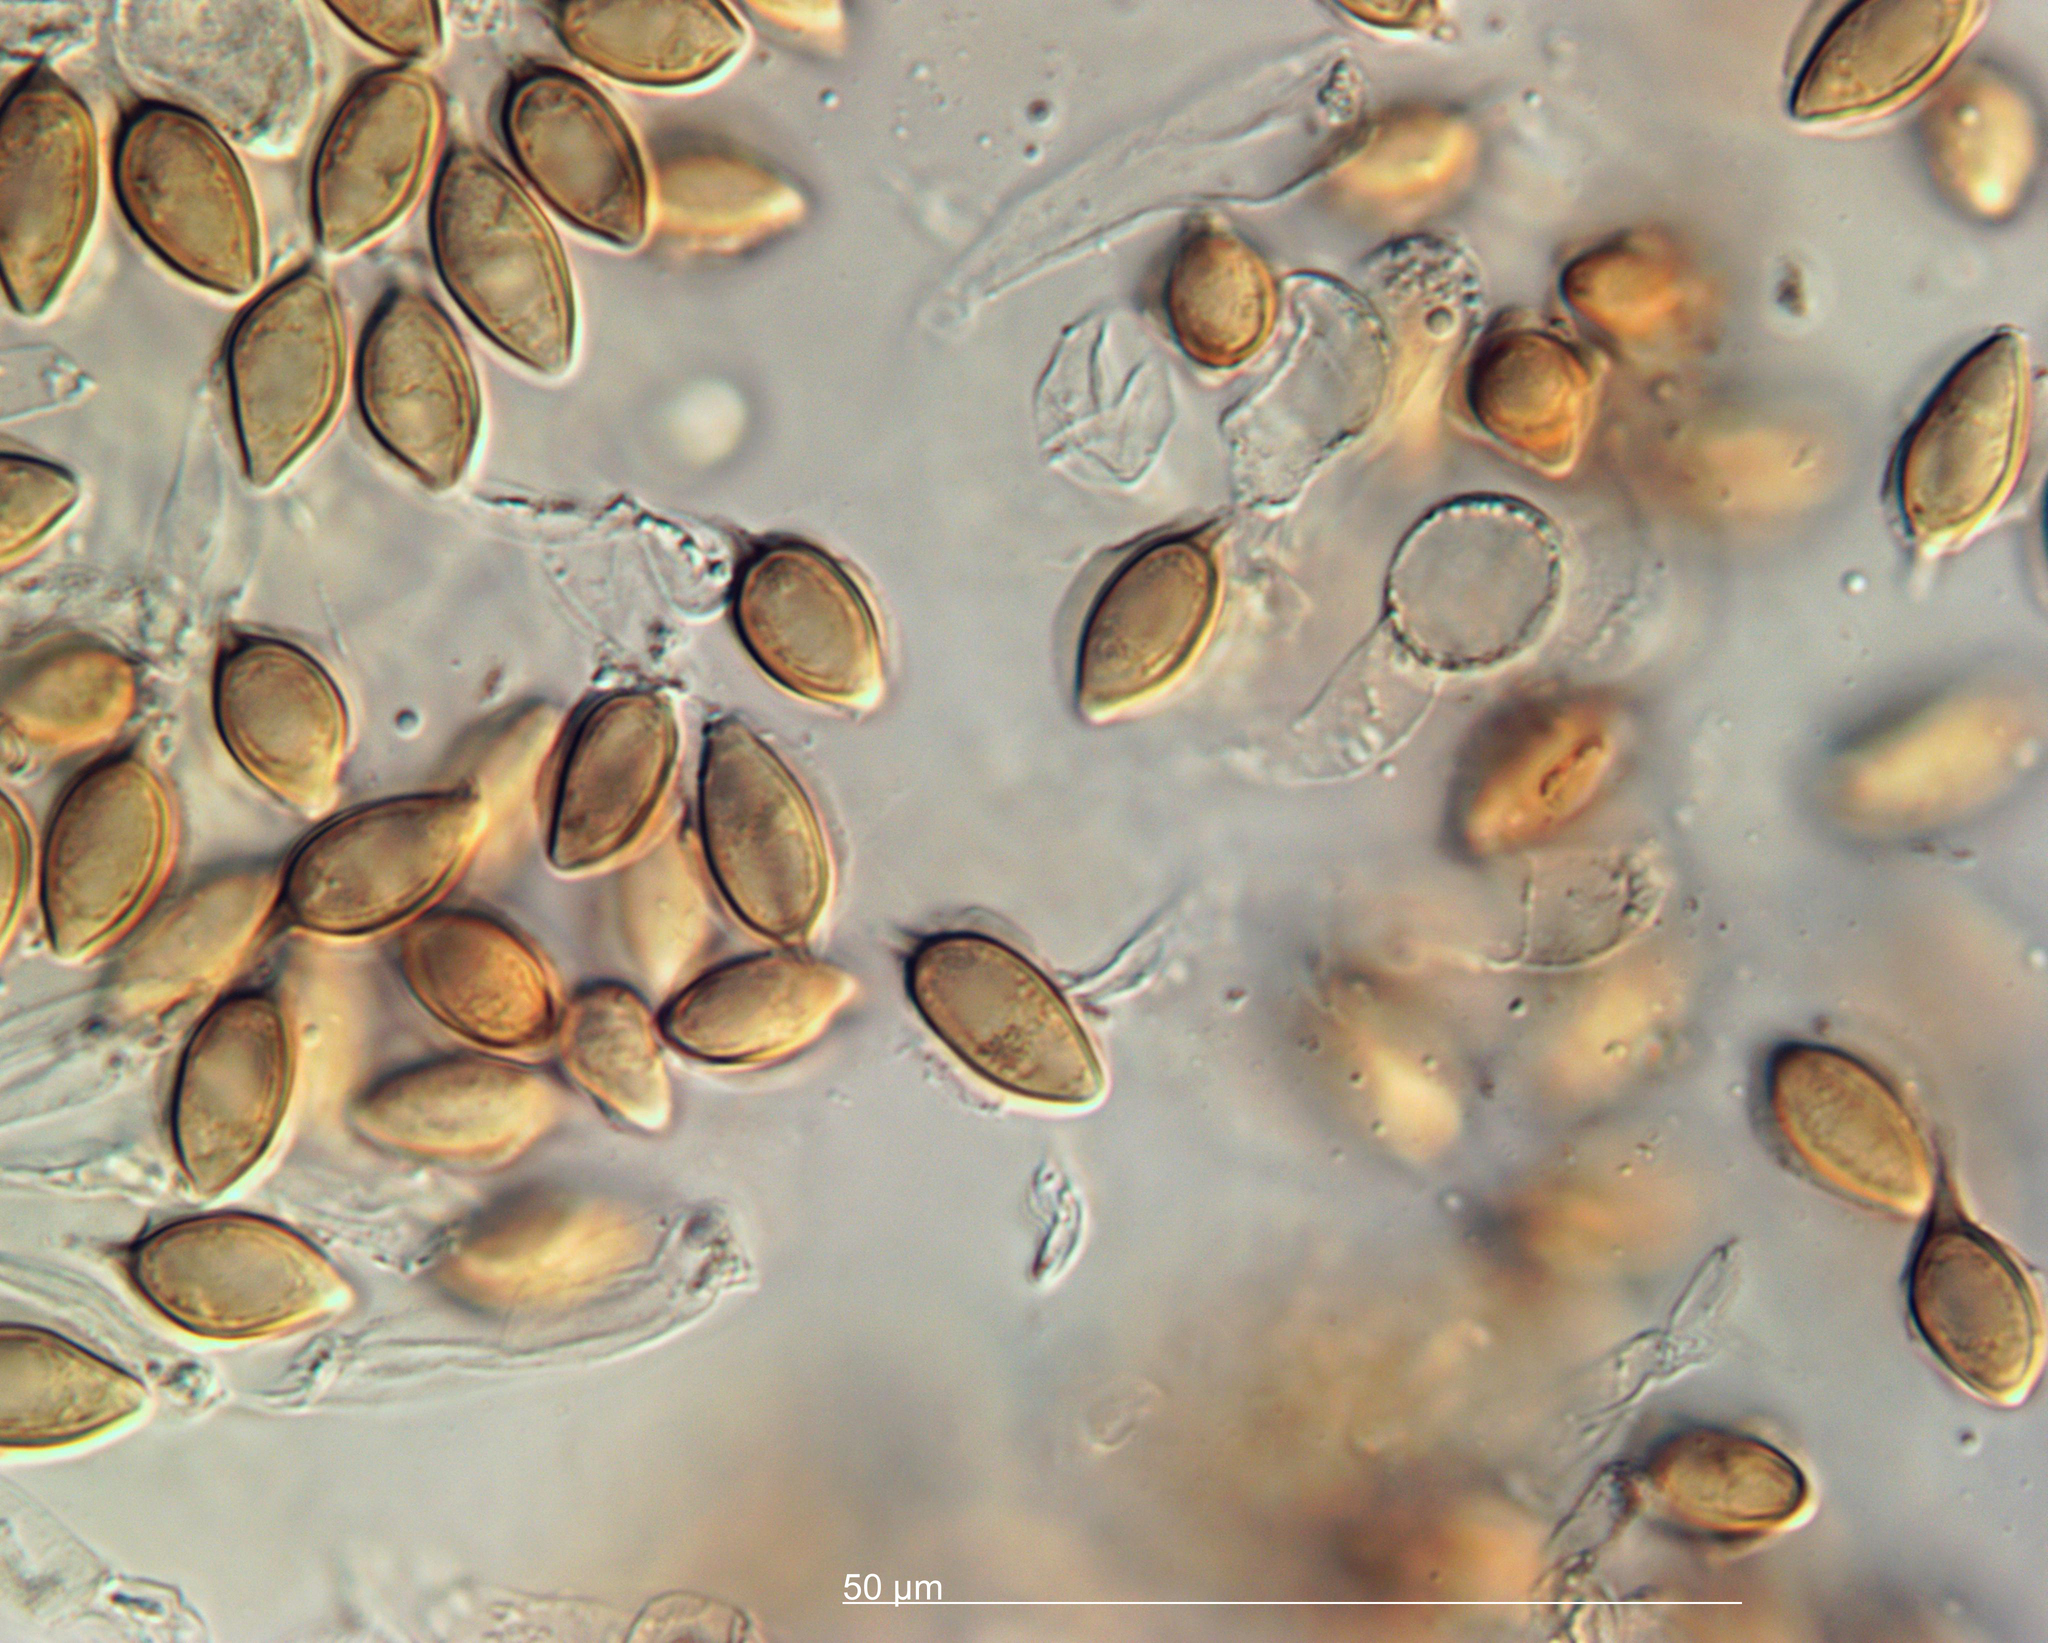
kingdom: Fungi
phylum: Basidiomycota
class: Agaricomycetes
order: Boletales
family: Boletaceae
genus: Leccinum
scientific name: Leccinum pachyderme
